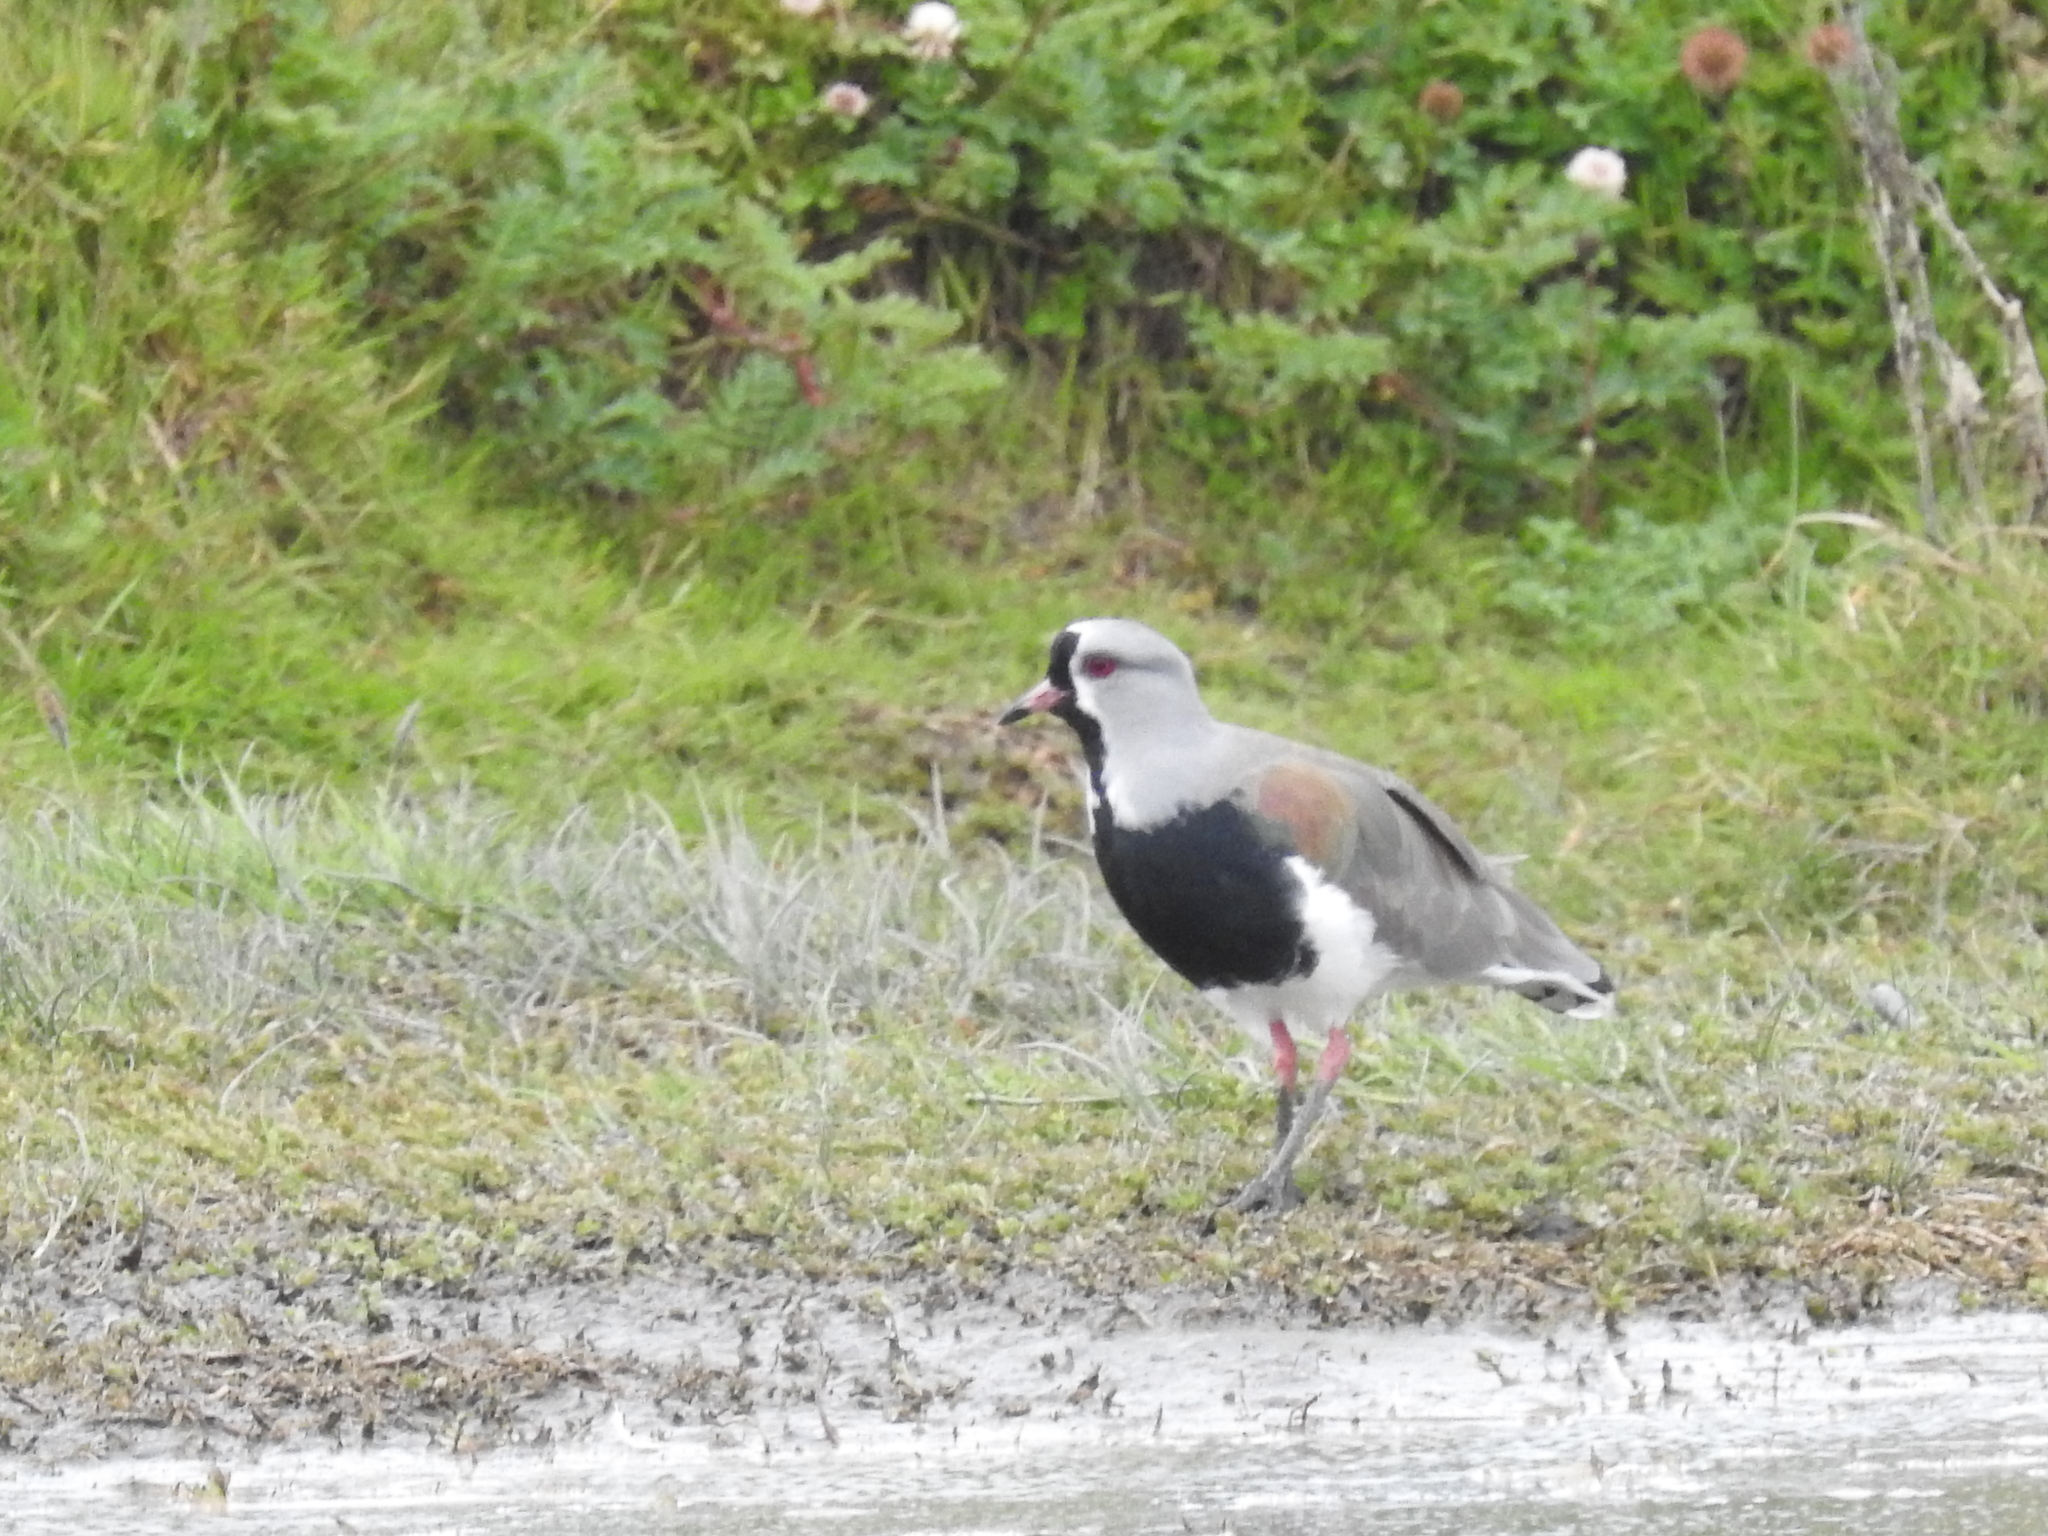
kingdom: Animalia
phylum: Chordata
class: Aves
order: Charadriiformes
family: Charadriidae
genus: Vanellus
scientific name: Vanellus chilensis
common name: Southern lapwing
